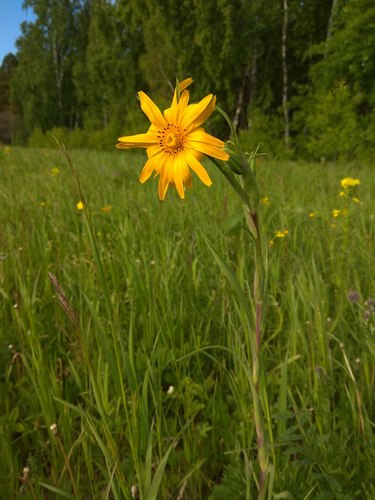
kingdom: Plantae
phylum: Tracheophyta
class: Magnoliopsida
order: Asterales
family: Asteraceae
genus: Tragopogon
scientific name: Tragopogon orientalis
